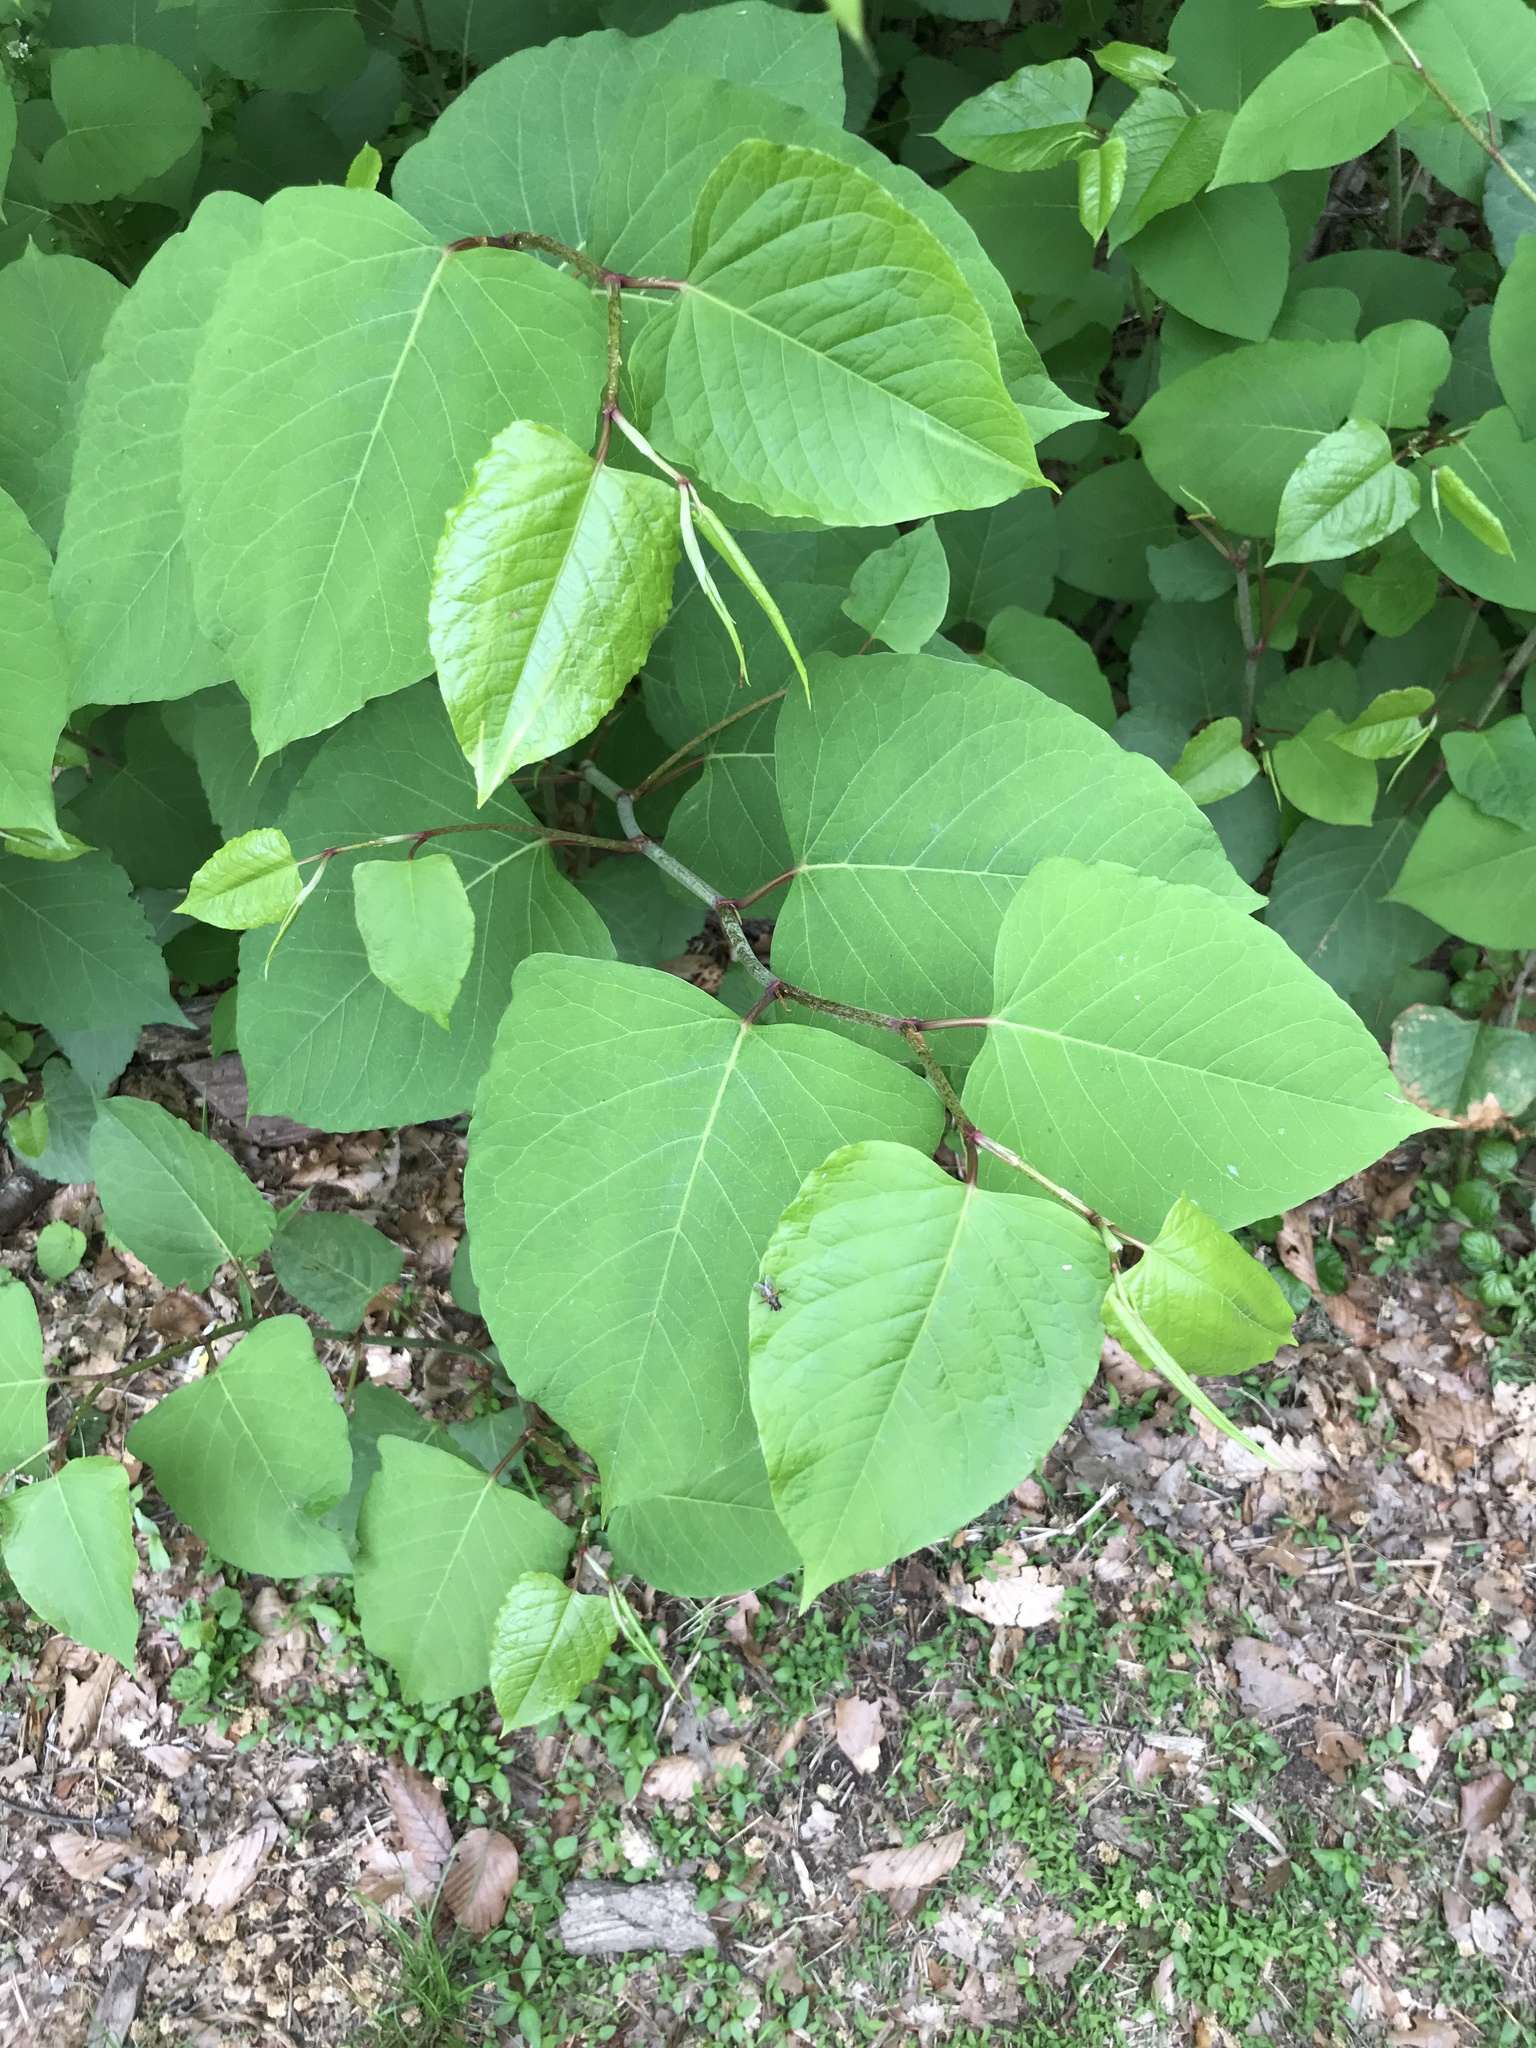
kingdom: Plantae
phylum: Tracheophyta
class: Magnoliopsida
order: Caryophyllales
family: Polygonaceae
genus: Reynoutria
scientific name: Reynoutria japonica
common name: Japanese knotweed
